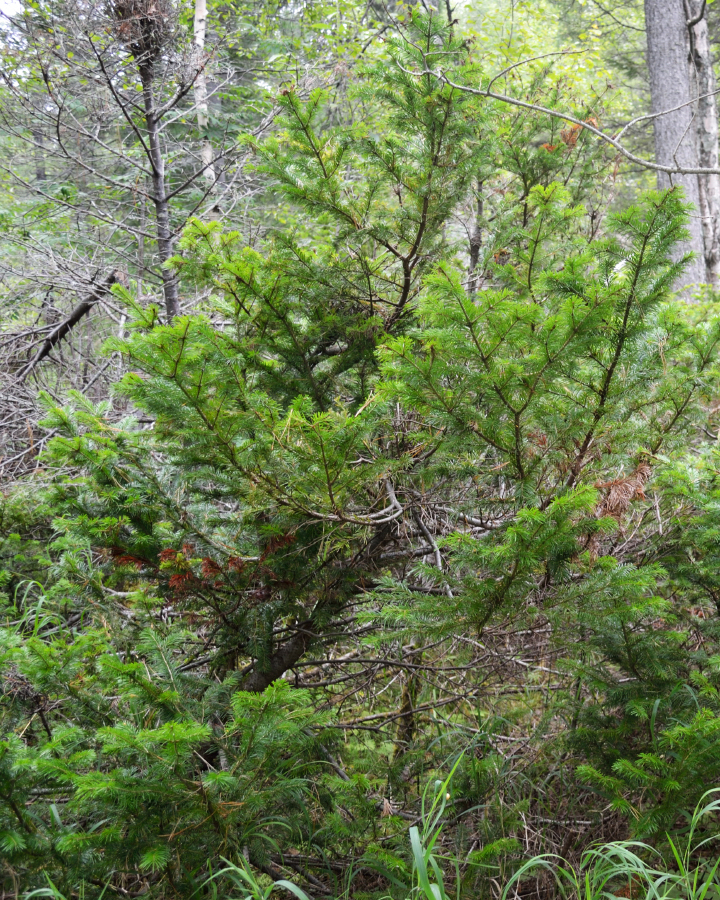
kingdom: Plantae
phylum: Tracheophyta
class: Pinopsida
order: Pinales
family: Pinaceae
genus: Abies
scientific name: Abies sibirica
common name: Siberian fir
